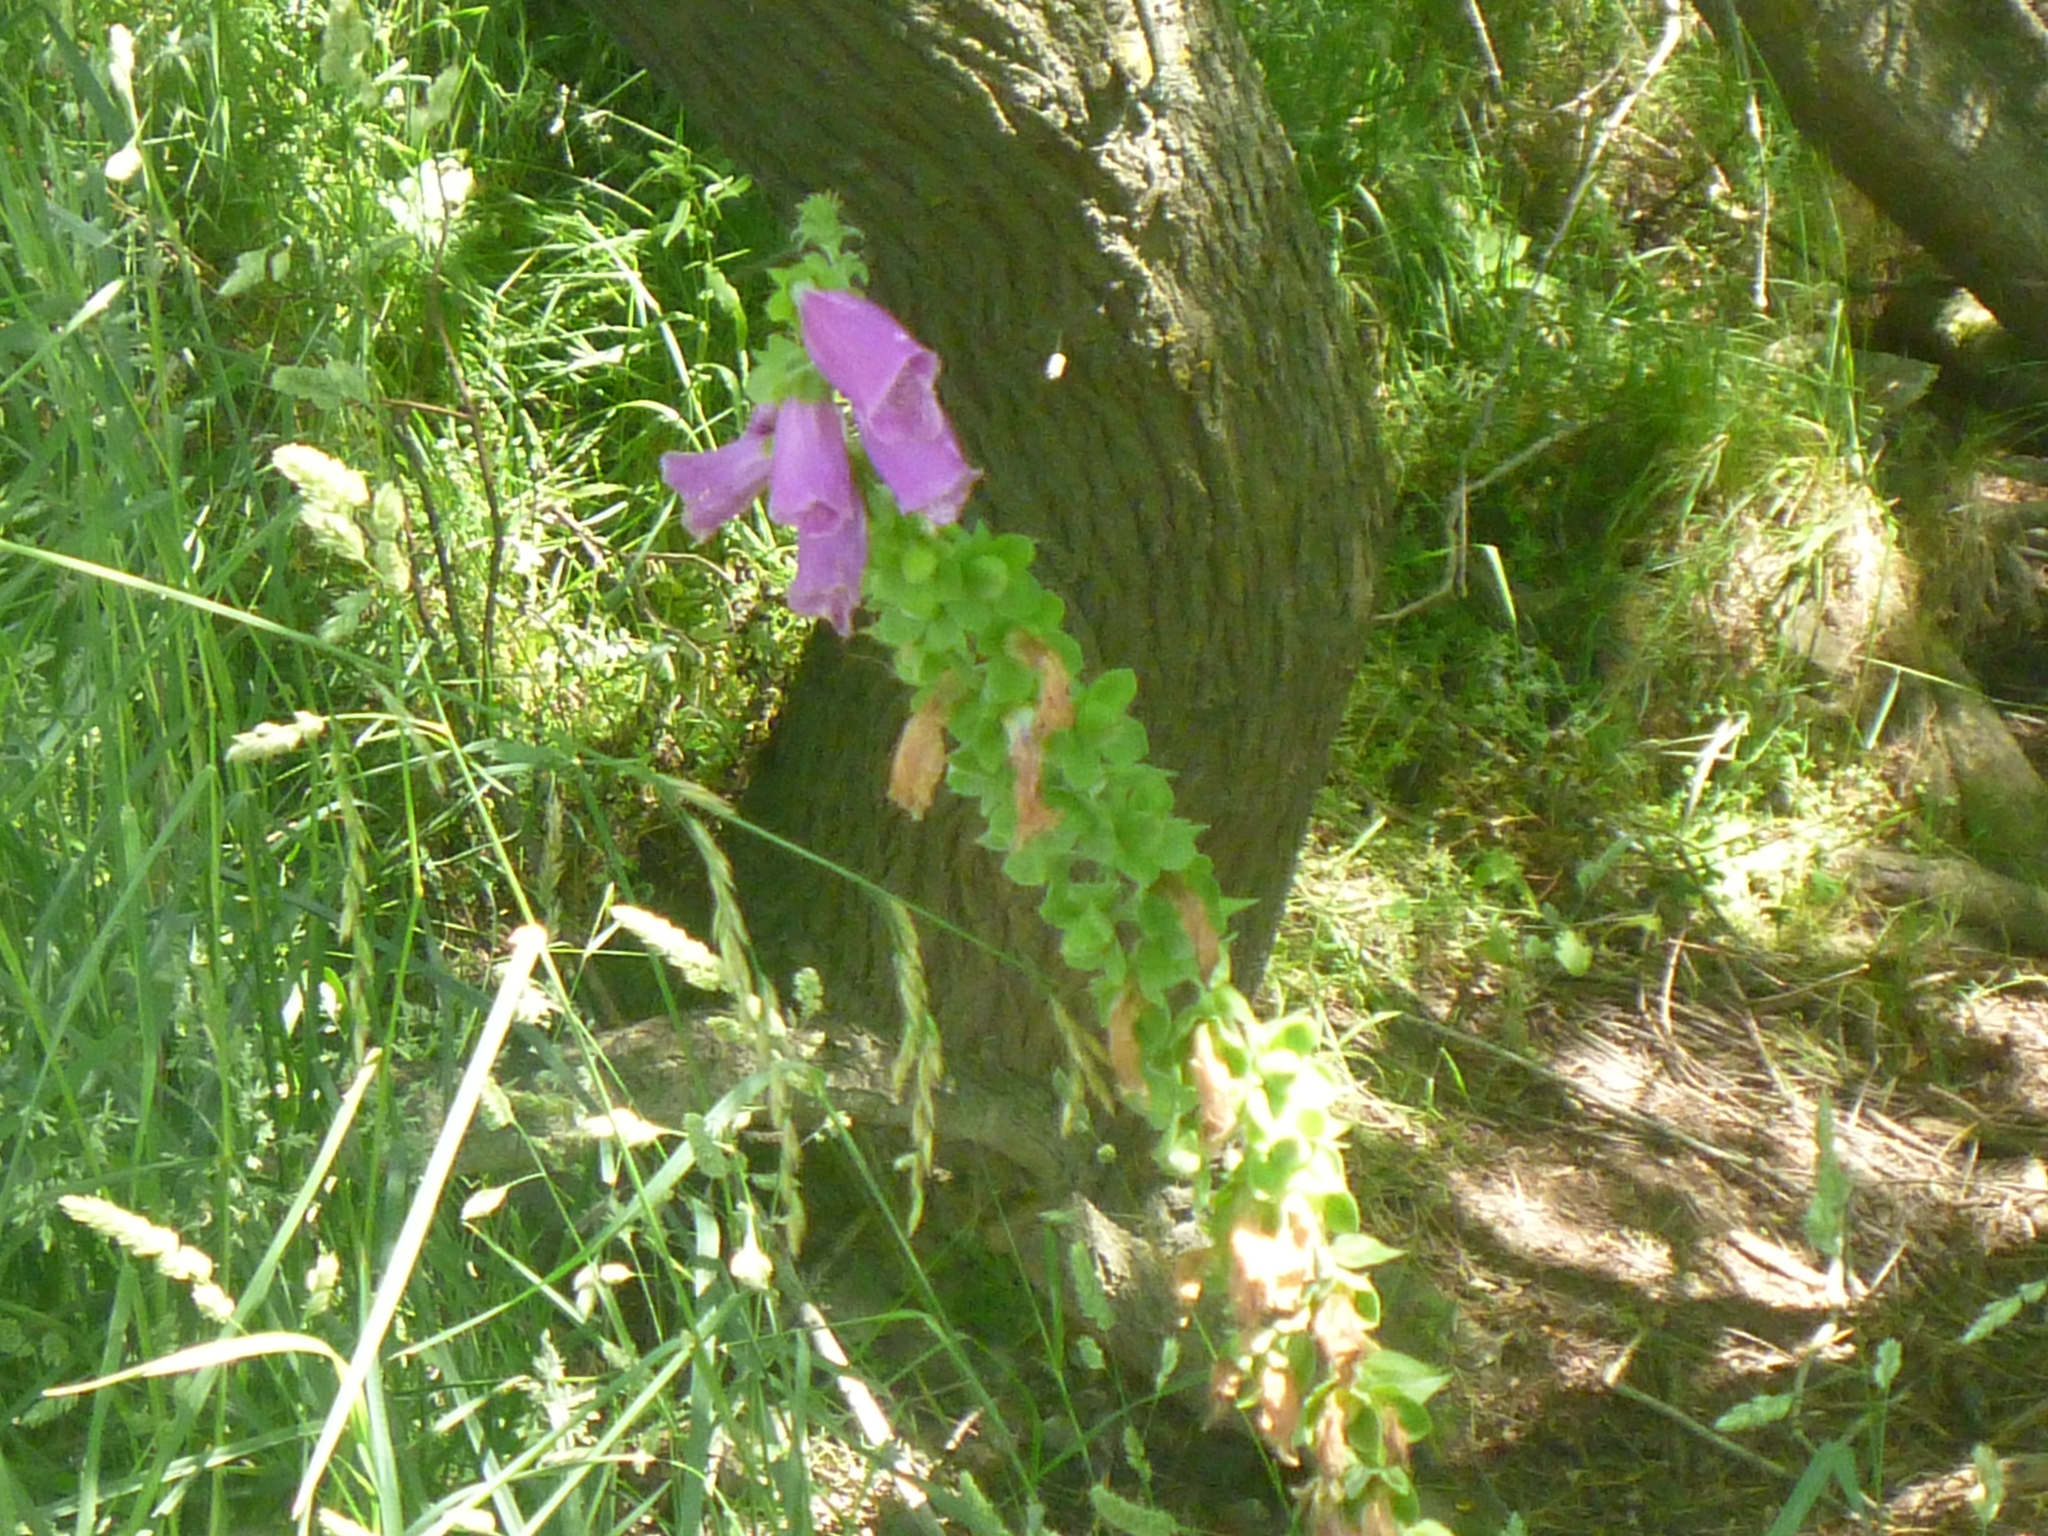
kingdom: Plantae
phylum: Tracheophyta
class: Magnoliopsida
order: Lamiales
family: Plantaginaceae
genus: Digitalis
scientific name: Digitalis purpurea
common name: Foxglove
